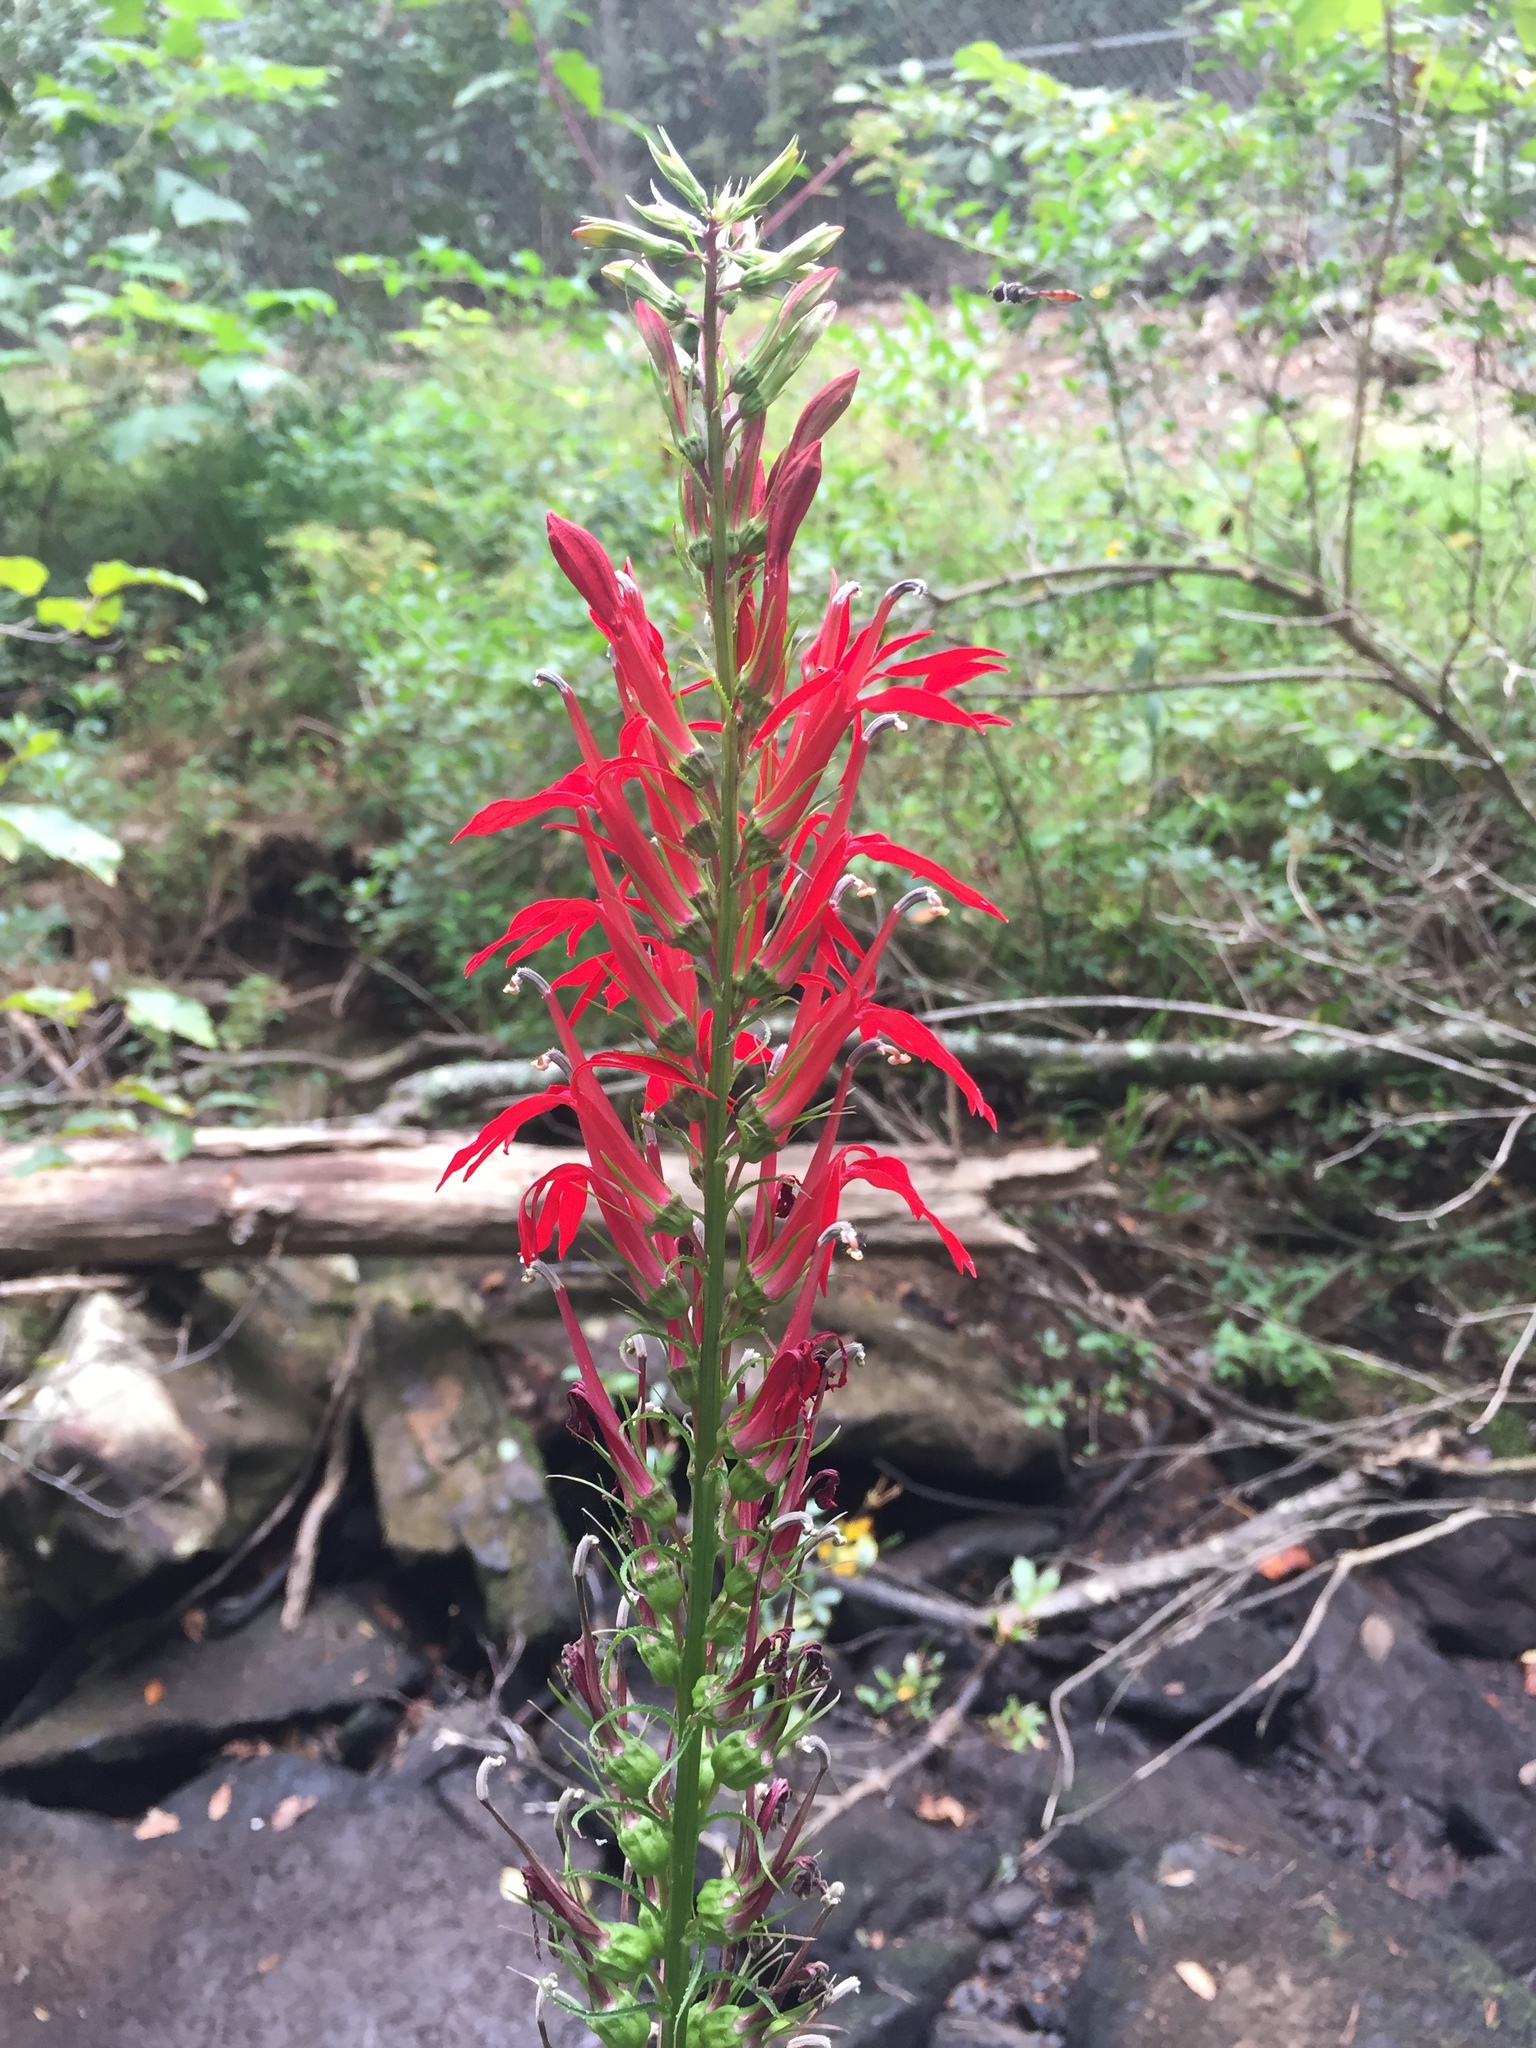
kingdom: Plantae
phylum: Tracheophyta
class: Magnoliopsida
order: Asterales
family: Campanulaceae
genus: Lobelia
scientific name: Lobelia cardinalis
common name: Cardinal flower
